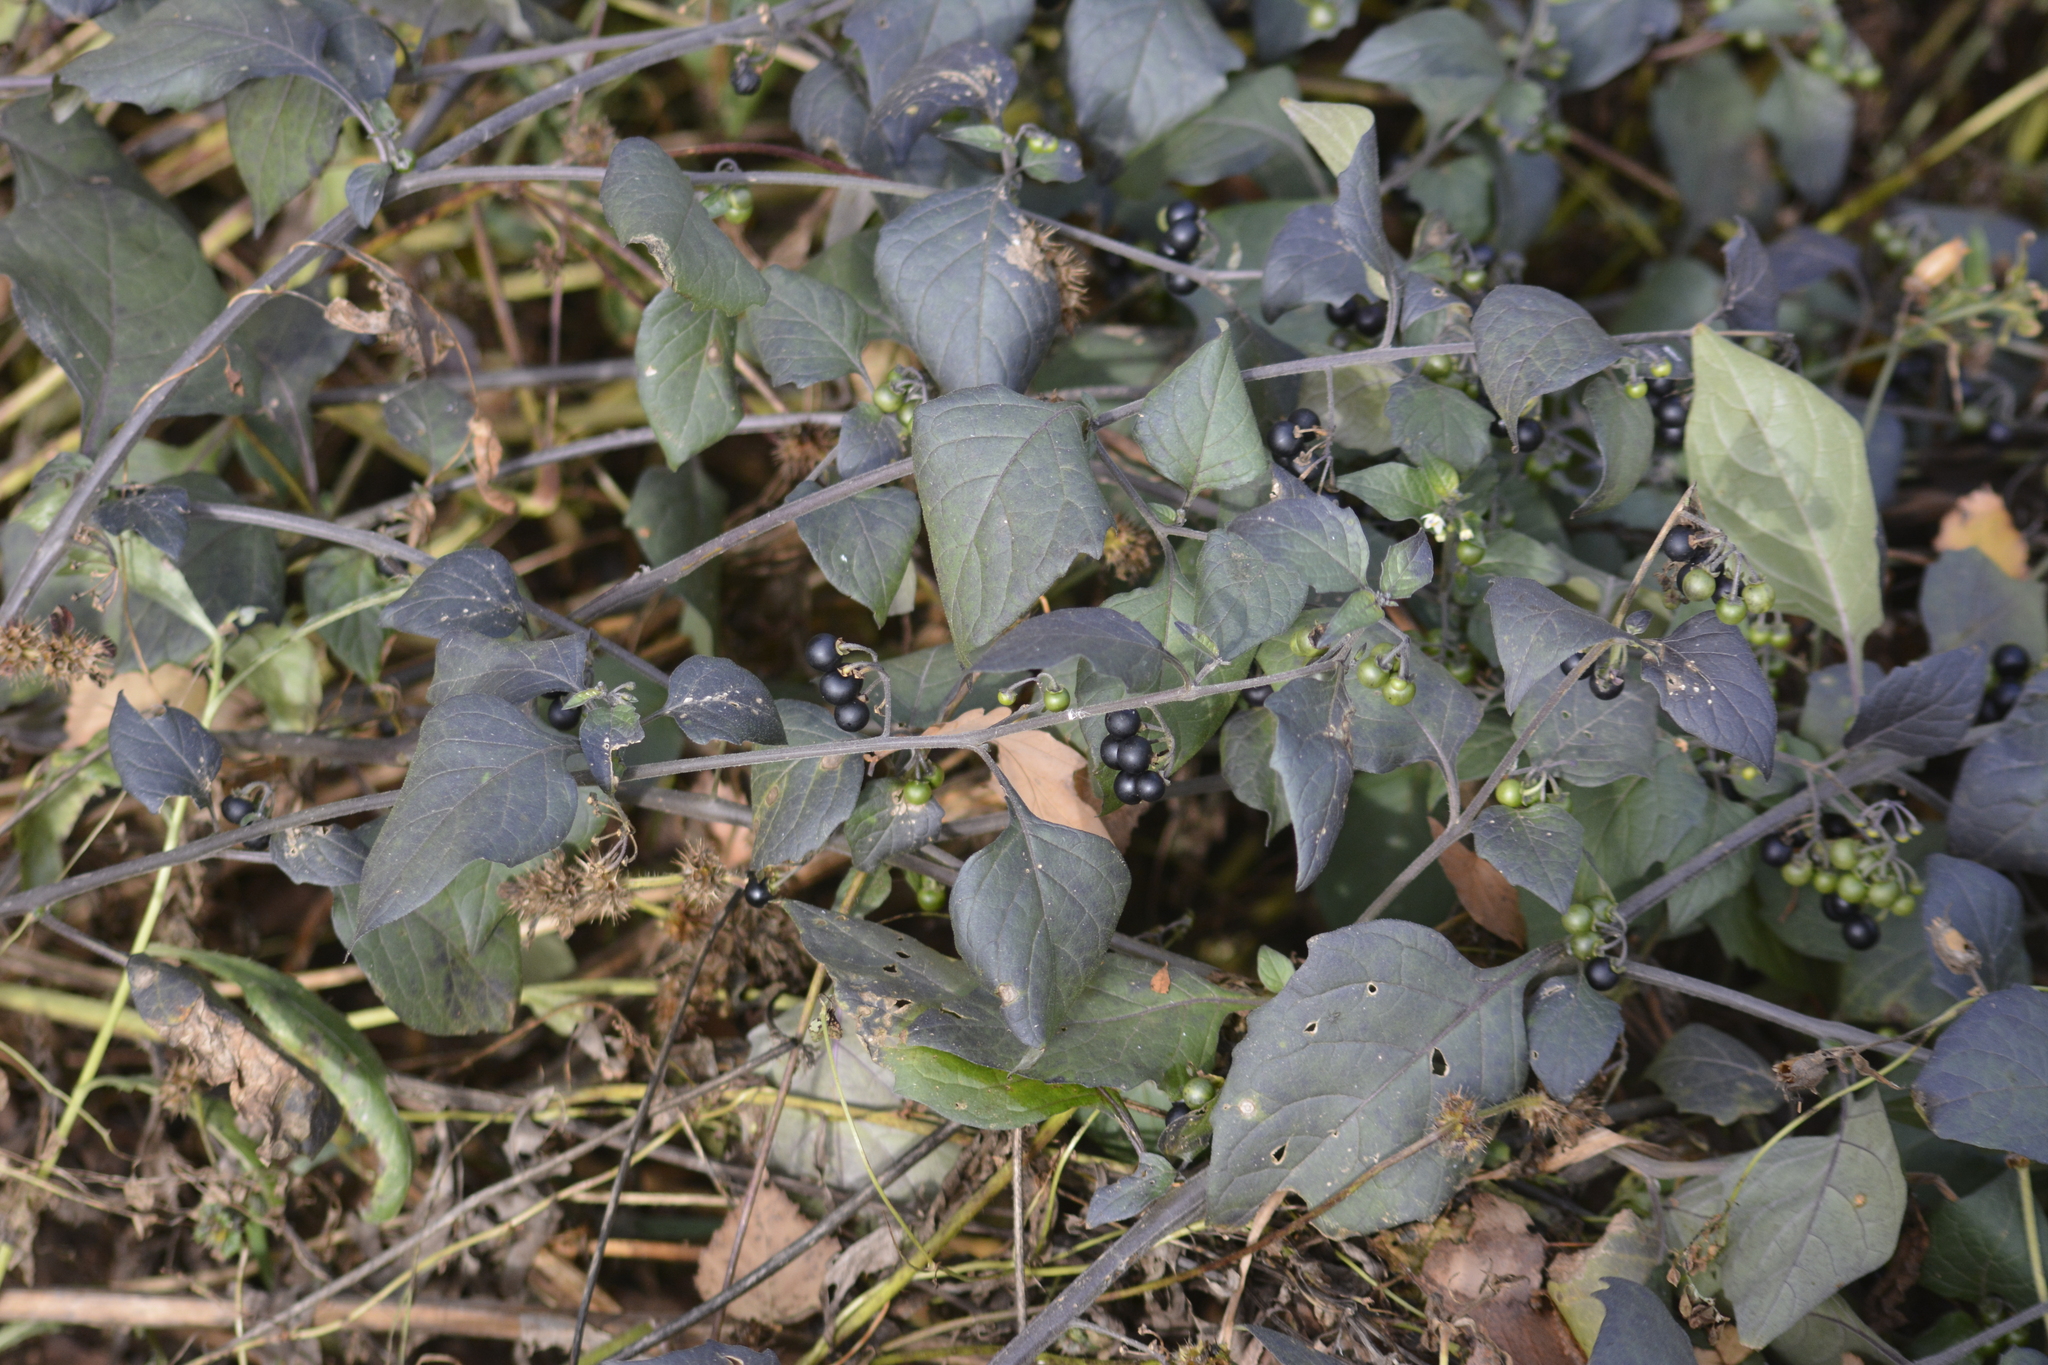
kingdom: Plantae
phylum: Tracheophyta
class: Magnoliopsida
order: Solanales
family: Solanaceae
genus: Solanum
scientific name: Solanum nigrum
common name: Black nightshade
